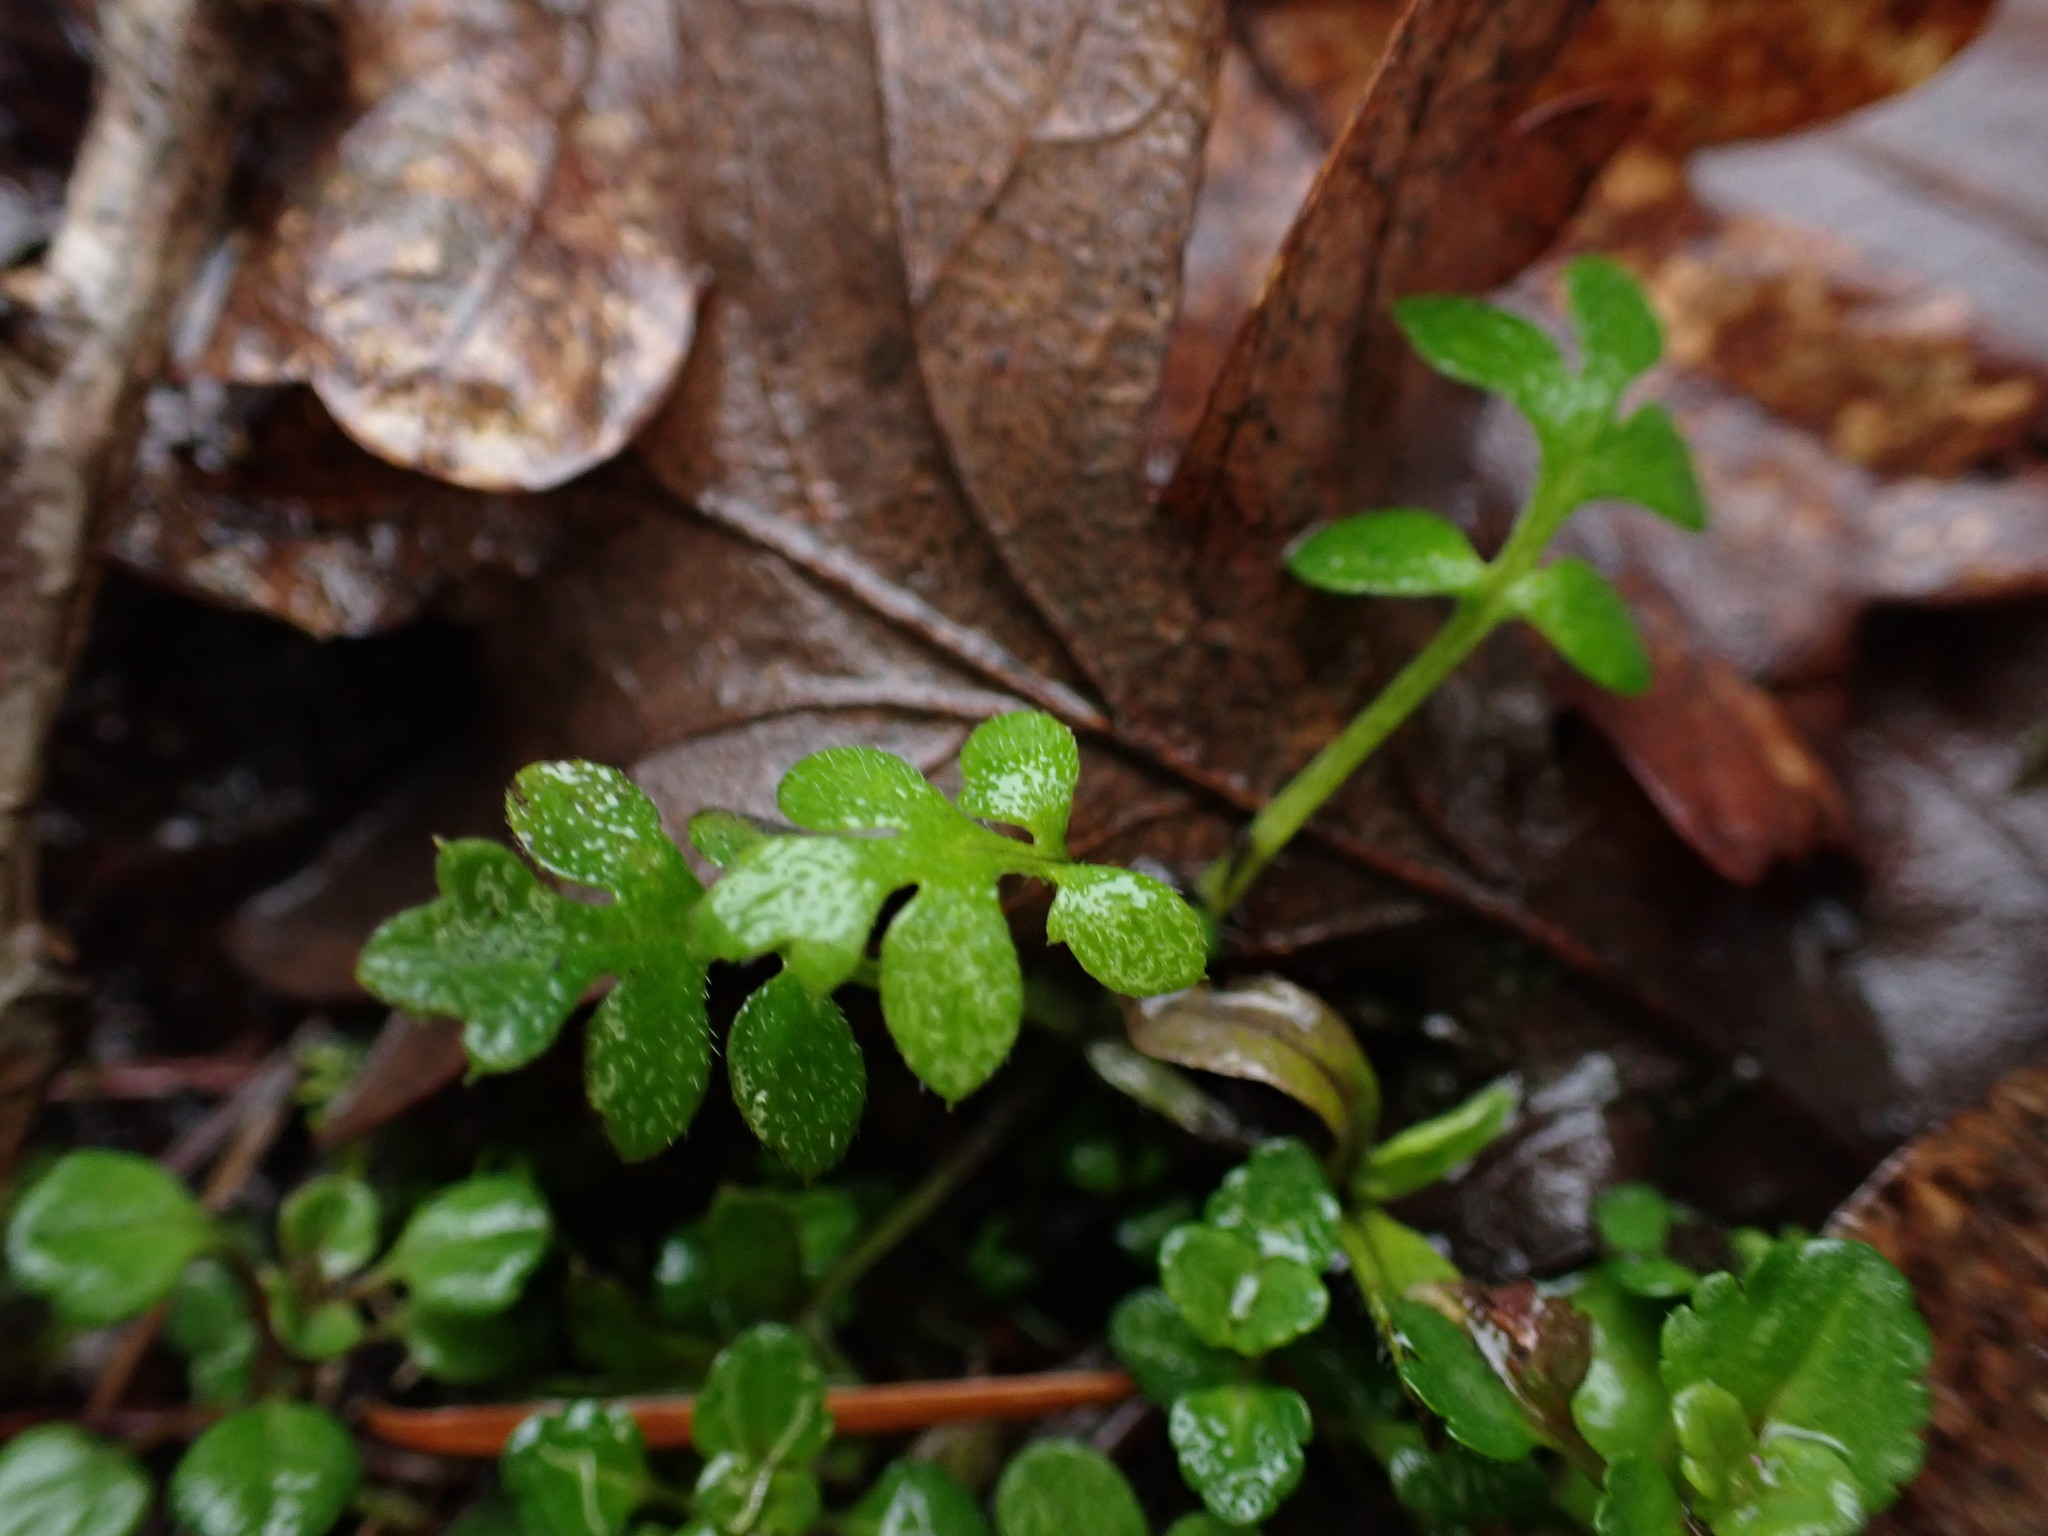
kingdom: Plantae
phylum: Tracheophyta
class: Magnoliopsida
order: Boraginales
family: Hydrophyllaceae
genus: Nemophila
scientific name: Nemophila parviflora
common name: Small-flowered baby-blue-eyes
